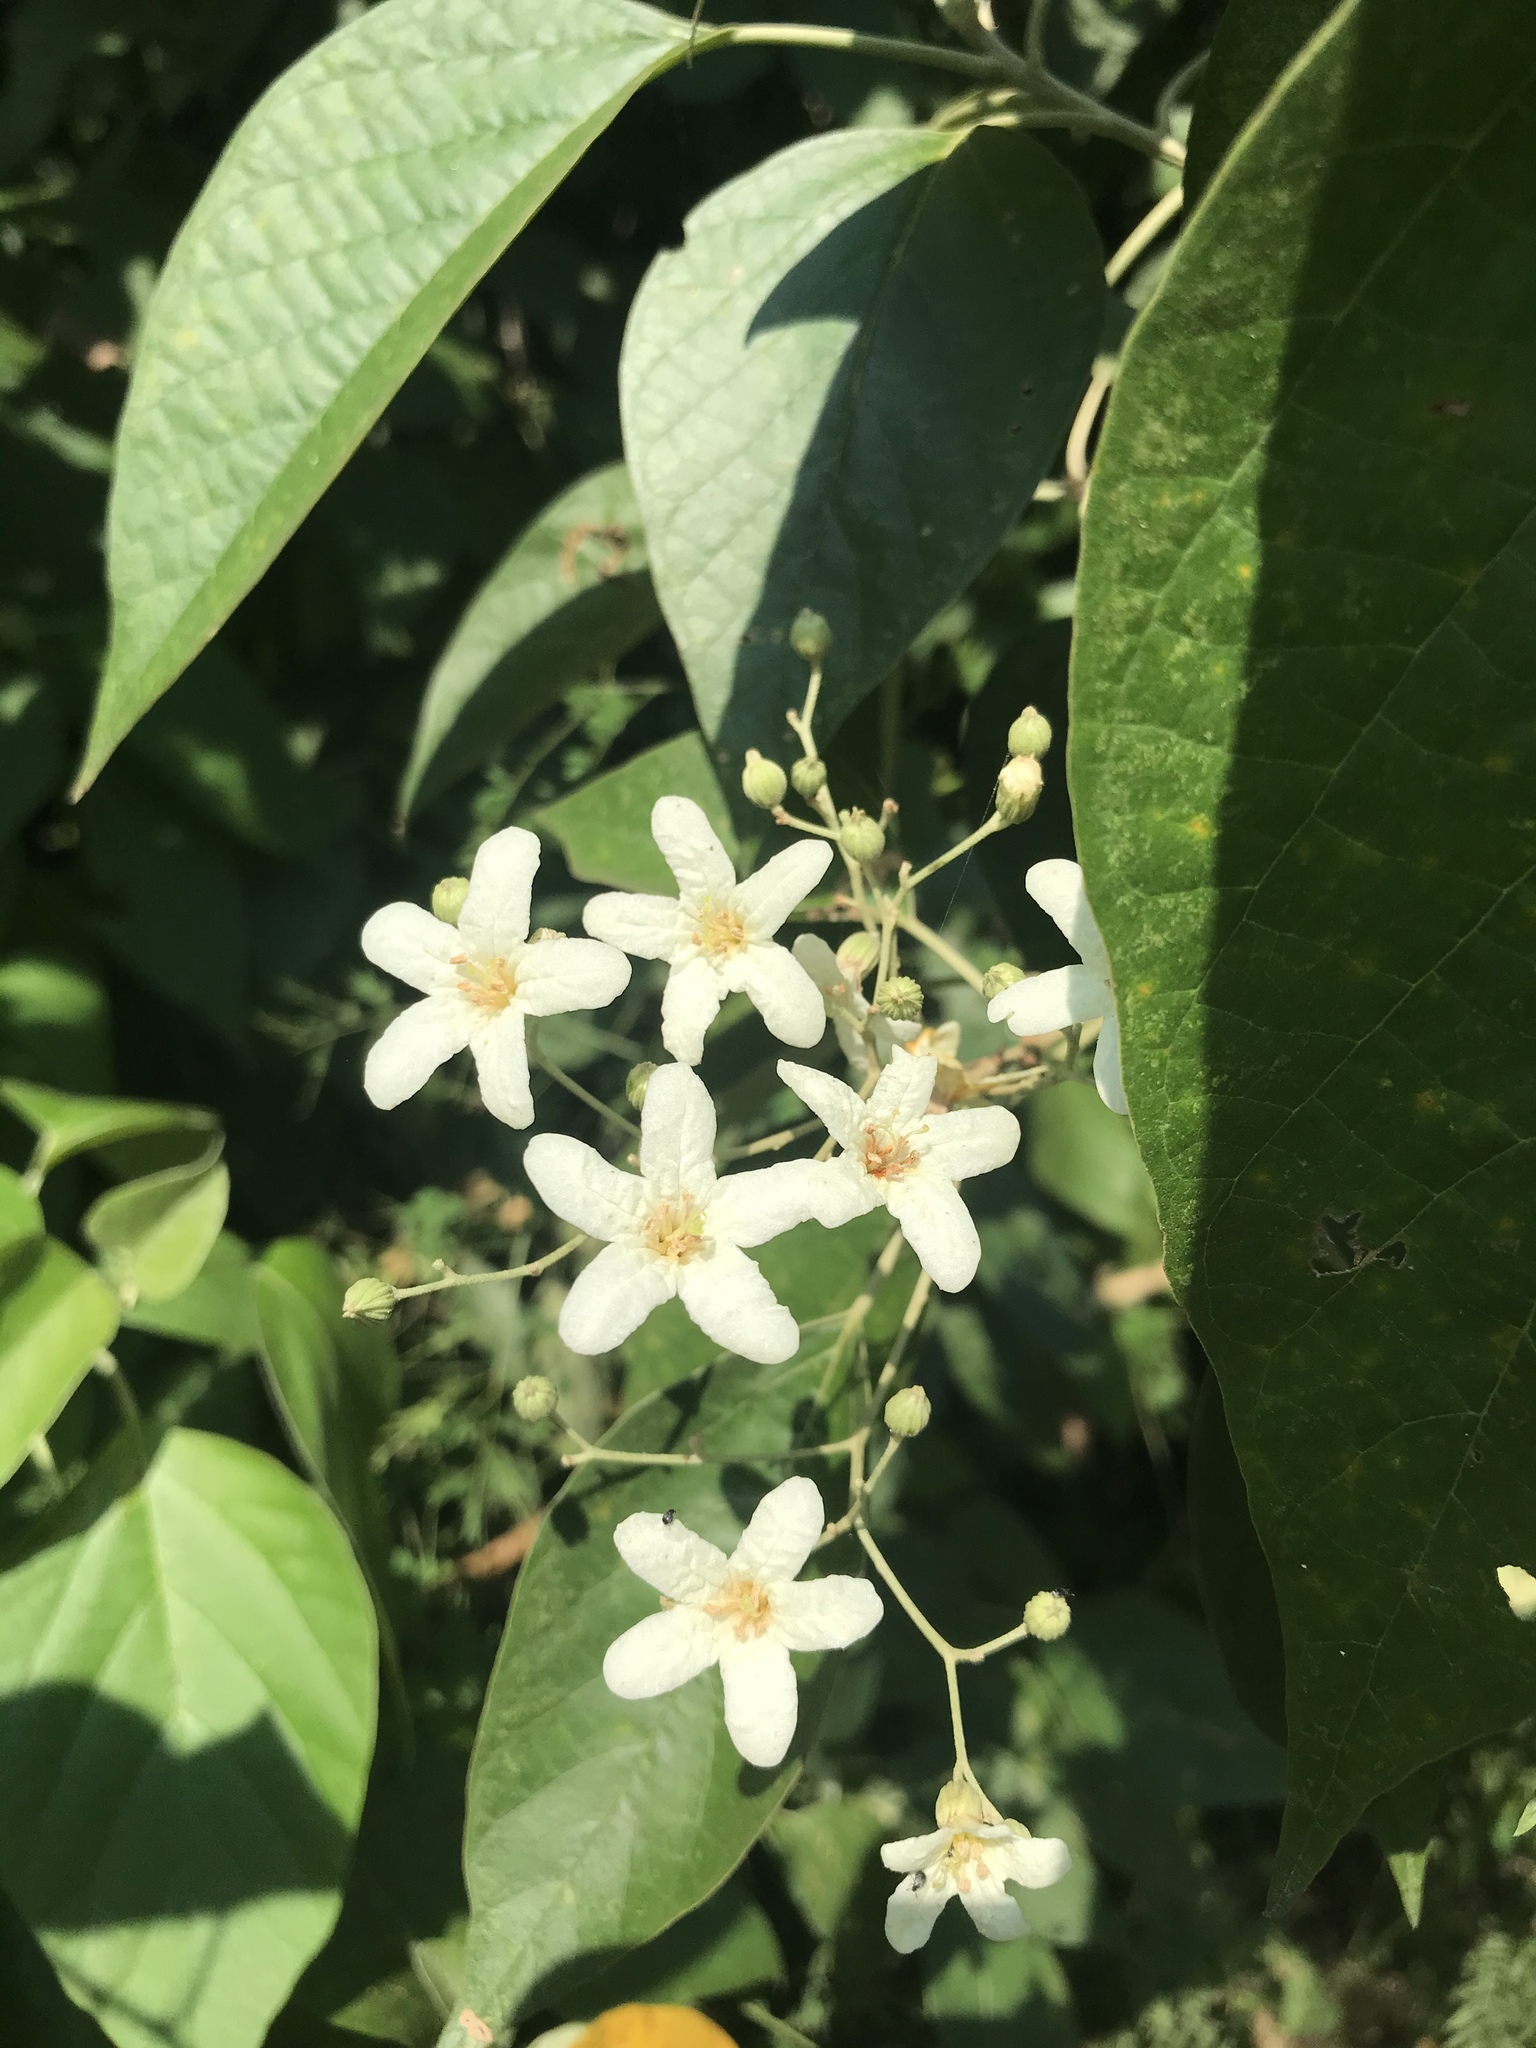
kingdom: Plantae
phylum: Tracheophyta
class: Magnoliopsida
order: Boraginales
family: Cordiaceae
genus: Cordia
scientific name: Cordia elaeagnoides
